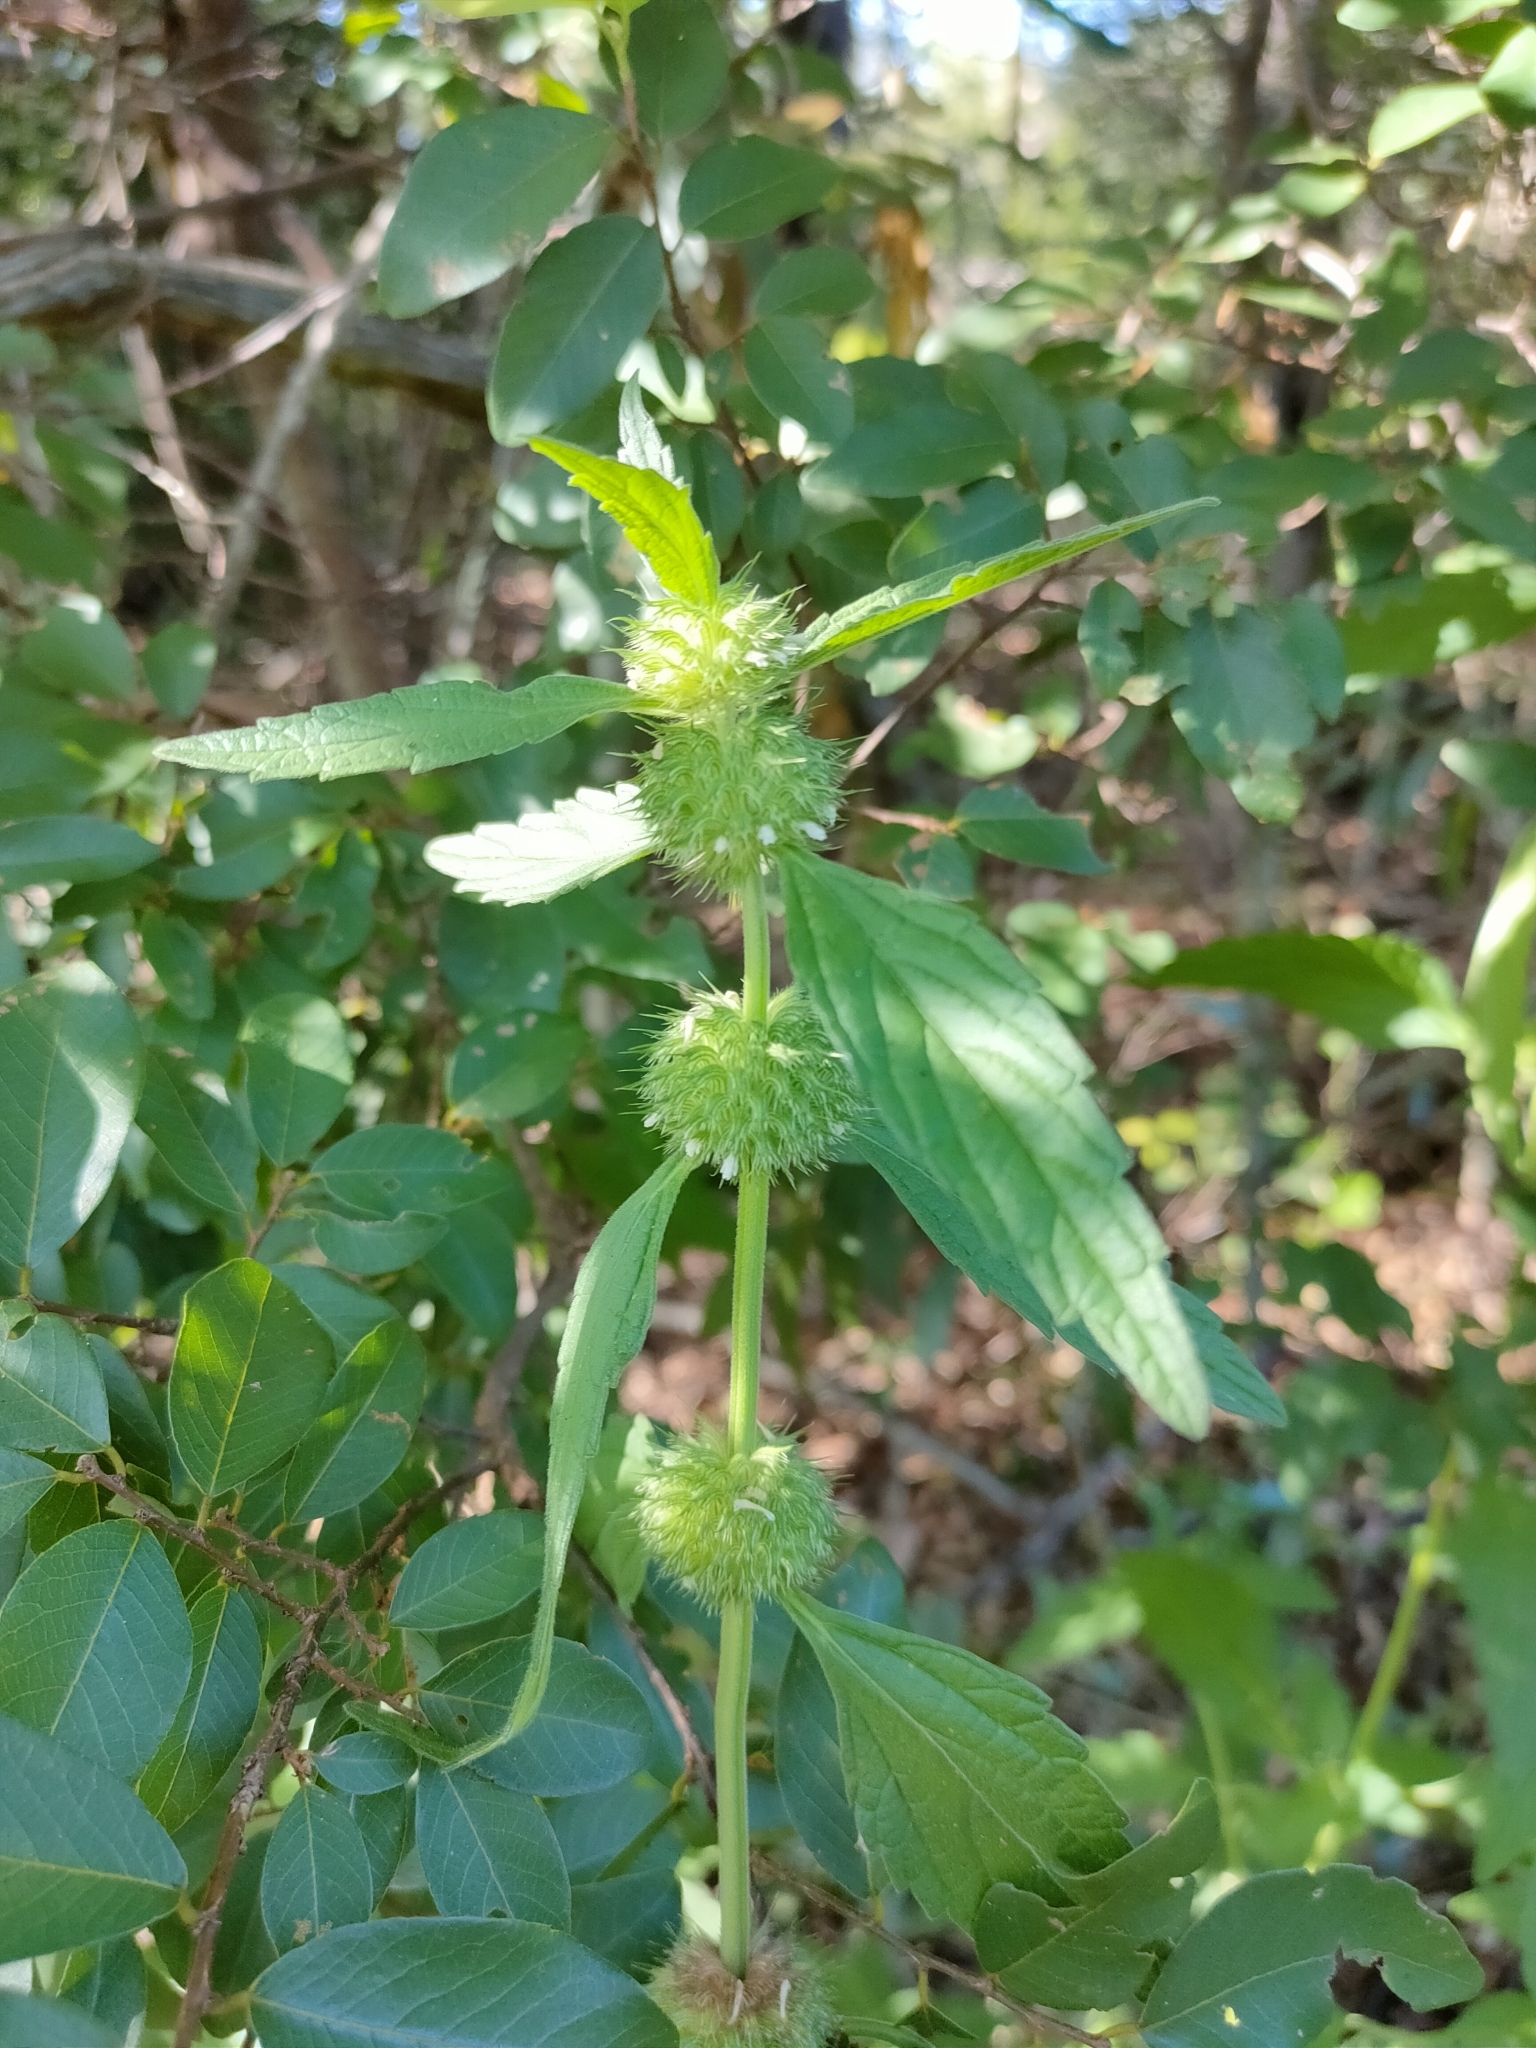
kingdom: Plantae
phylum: Tracheophyta
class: Magnoliopsida
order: Lamiales
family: Lamiaceae
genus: Leucas
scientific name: Leucas martinicensis
